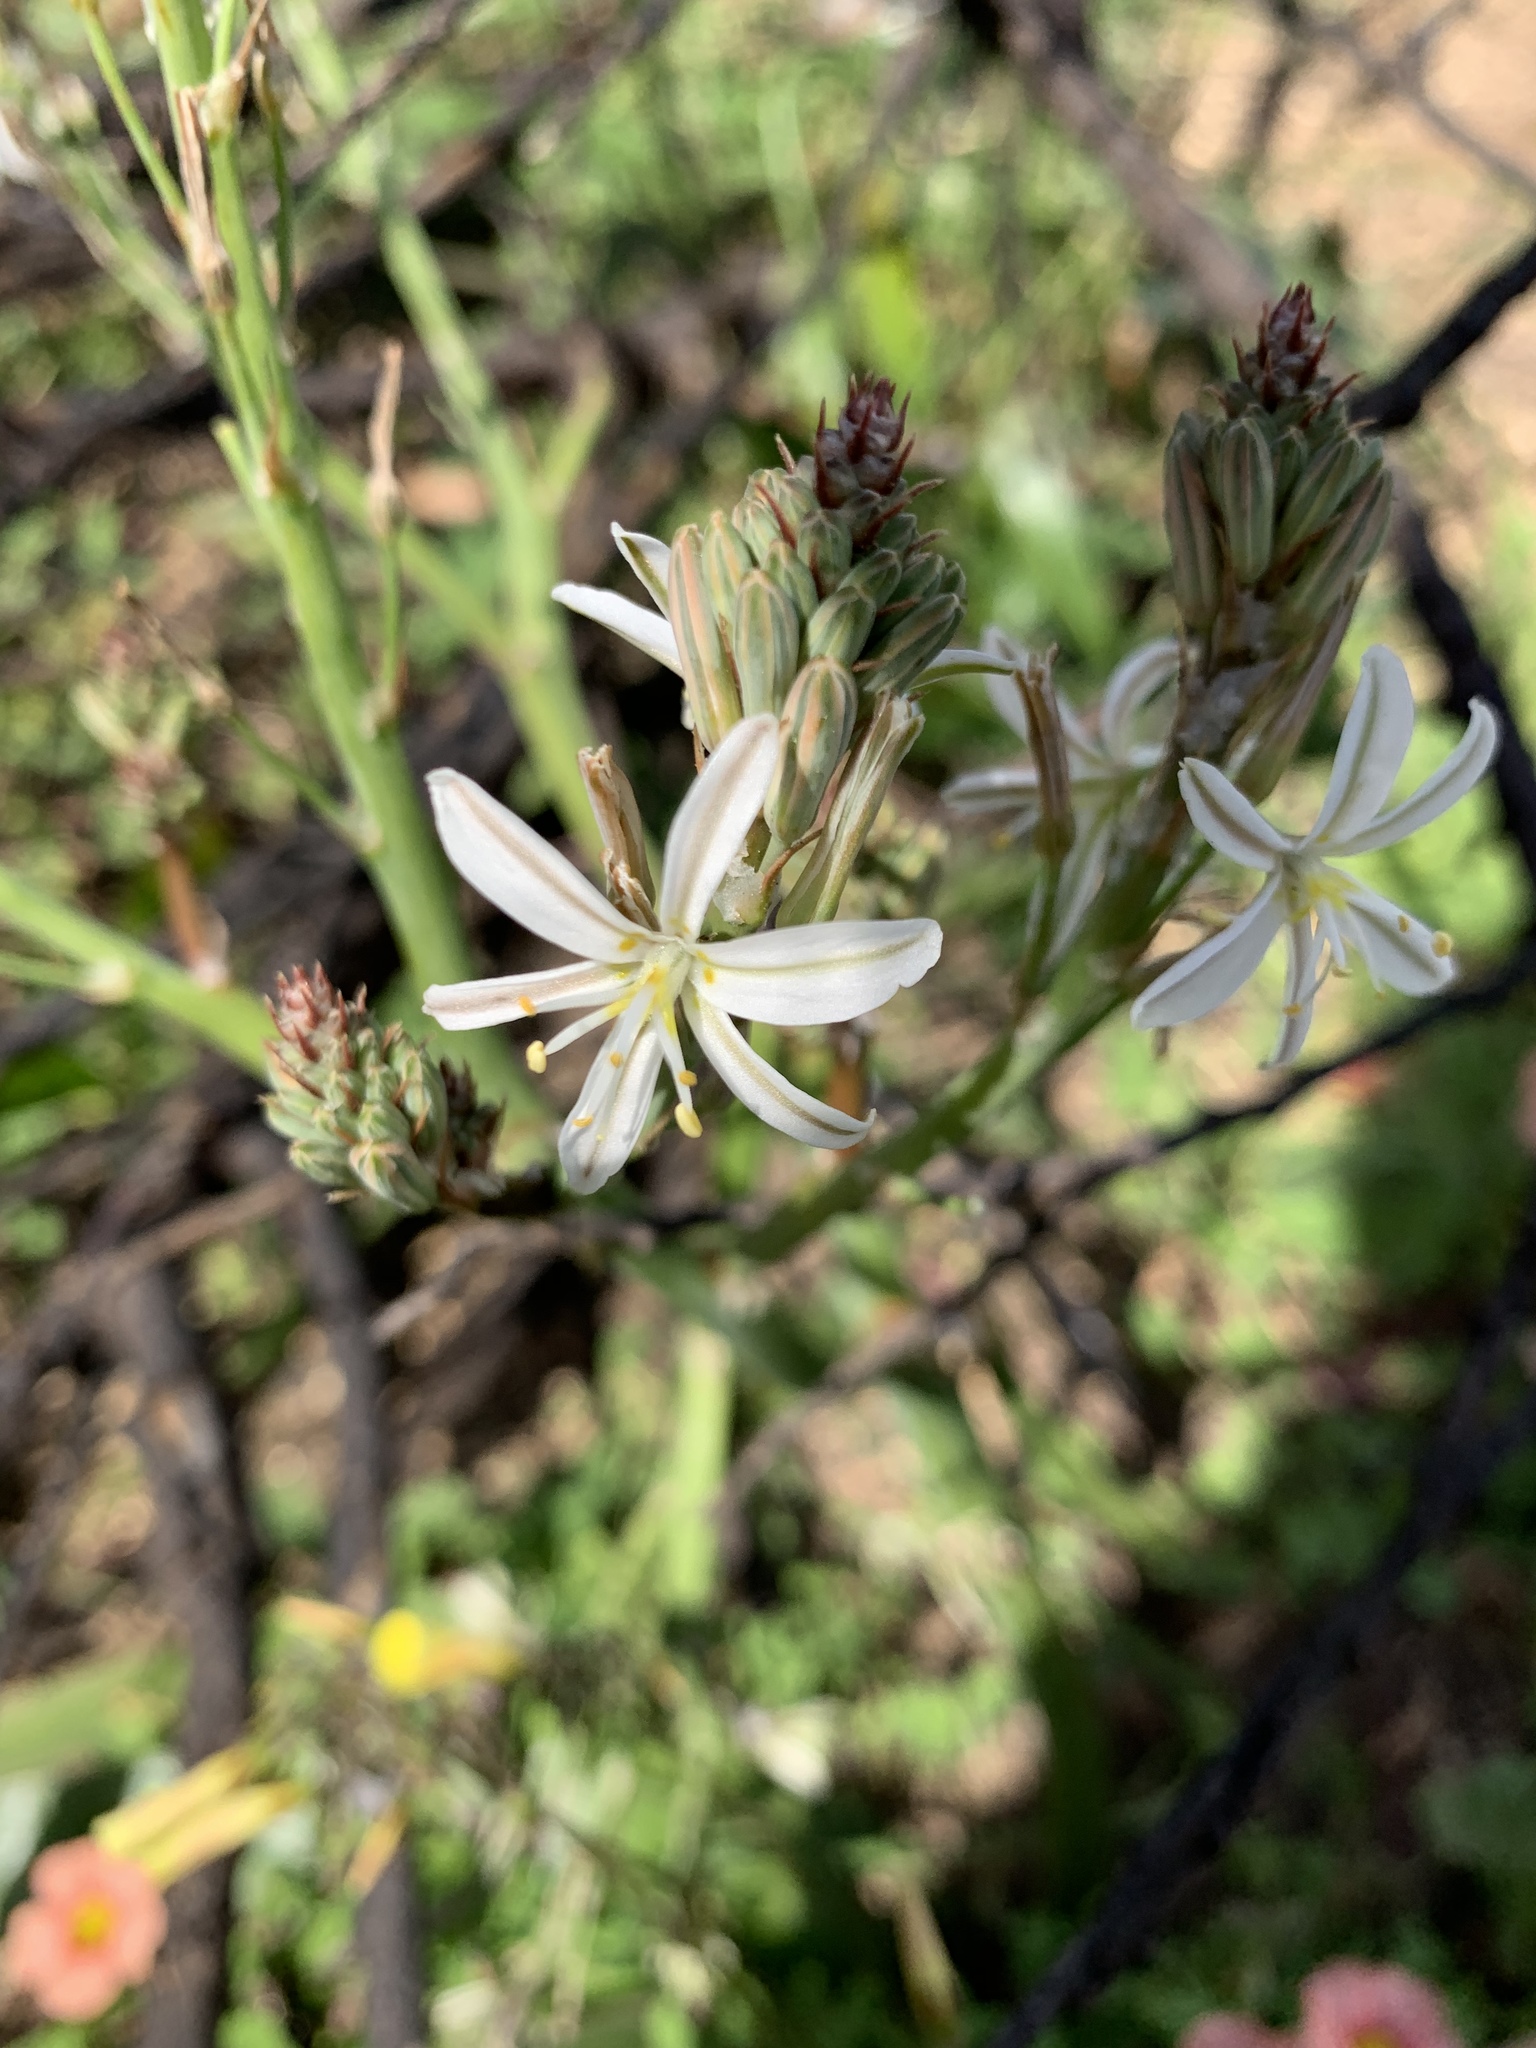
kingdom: Plantae
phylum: Tracheophyta
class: Liliopsida
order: Asparagales
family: Asphodelaceae
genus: Trachyandra
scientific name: Trachyandra muricata
